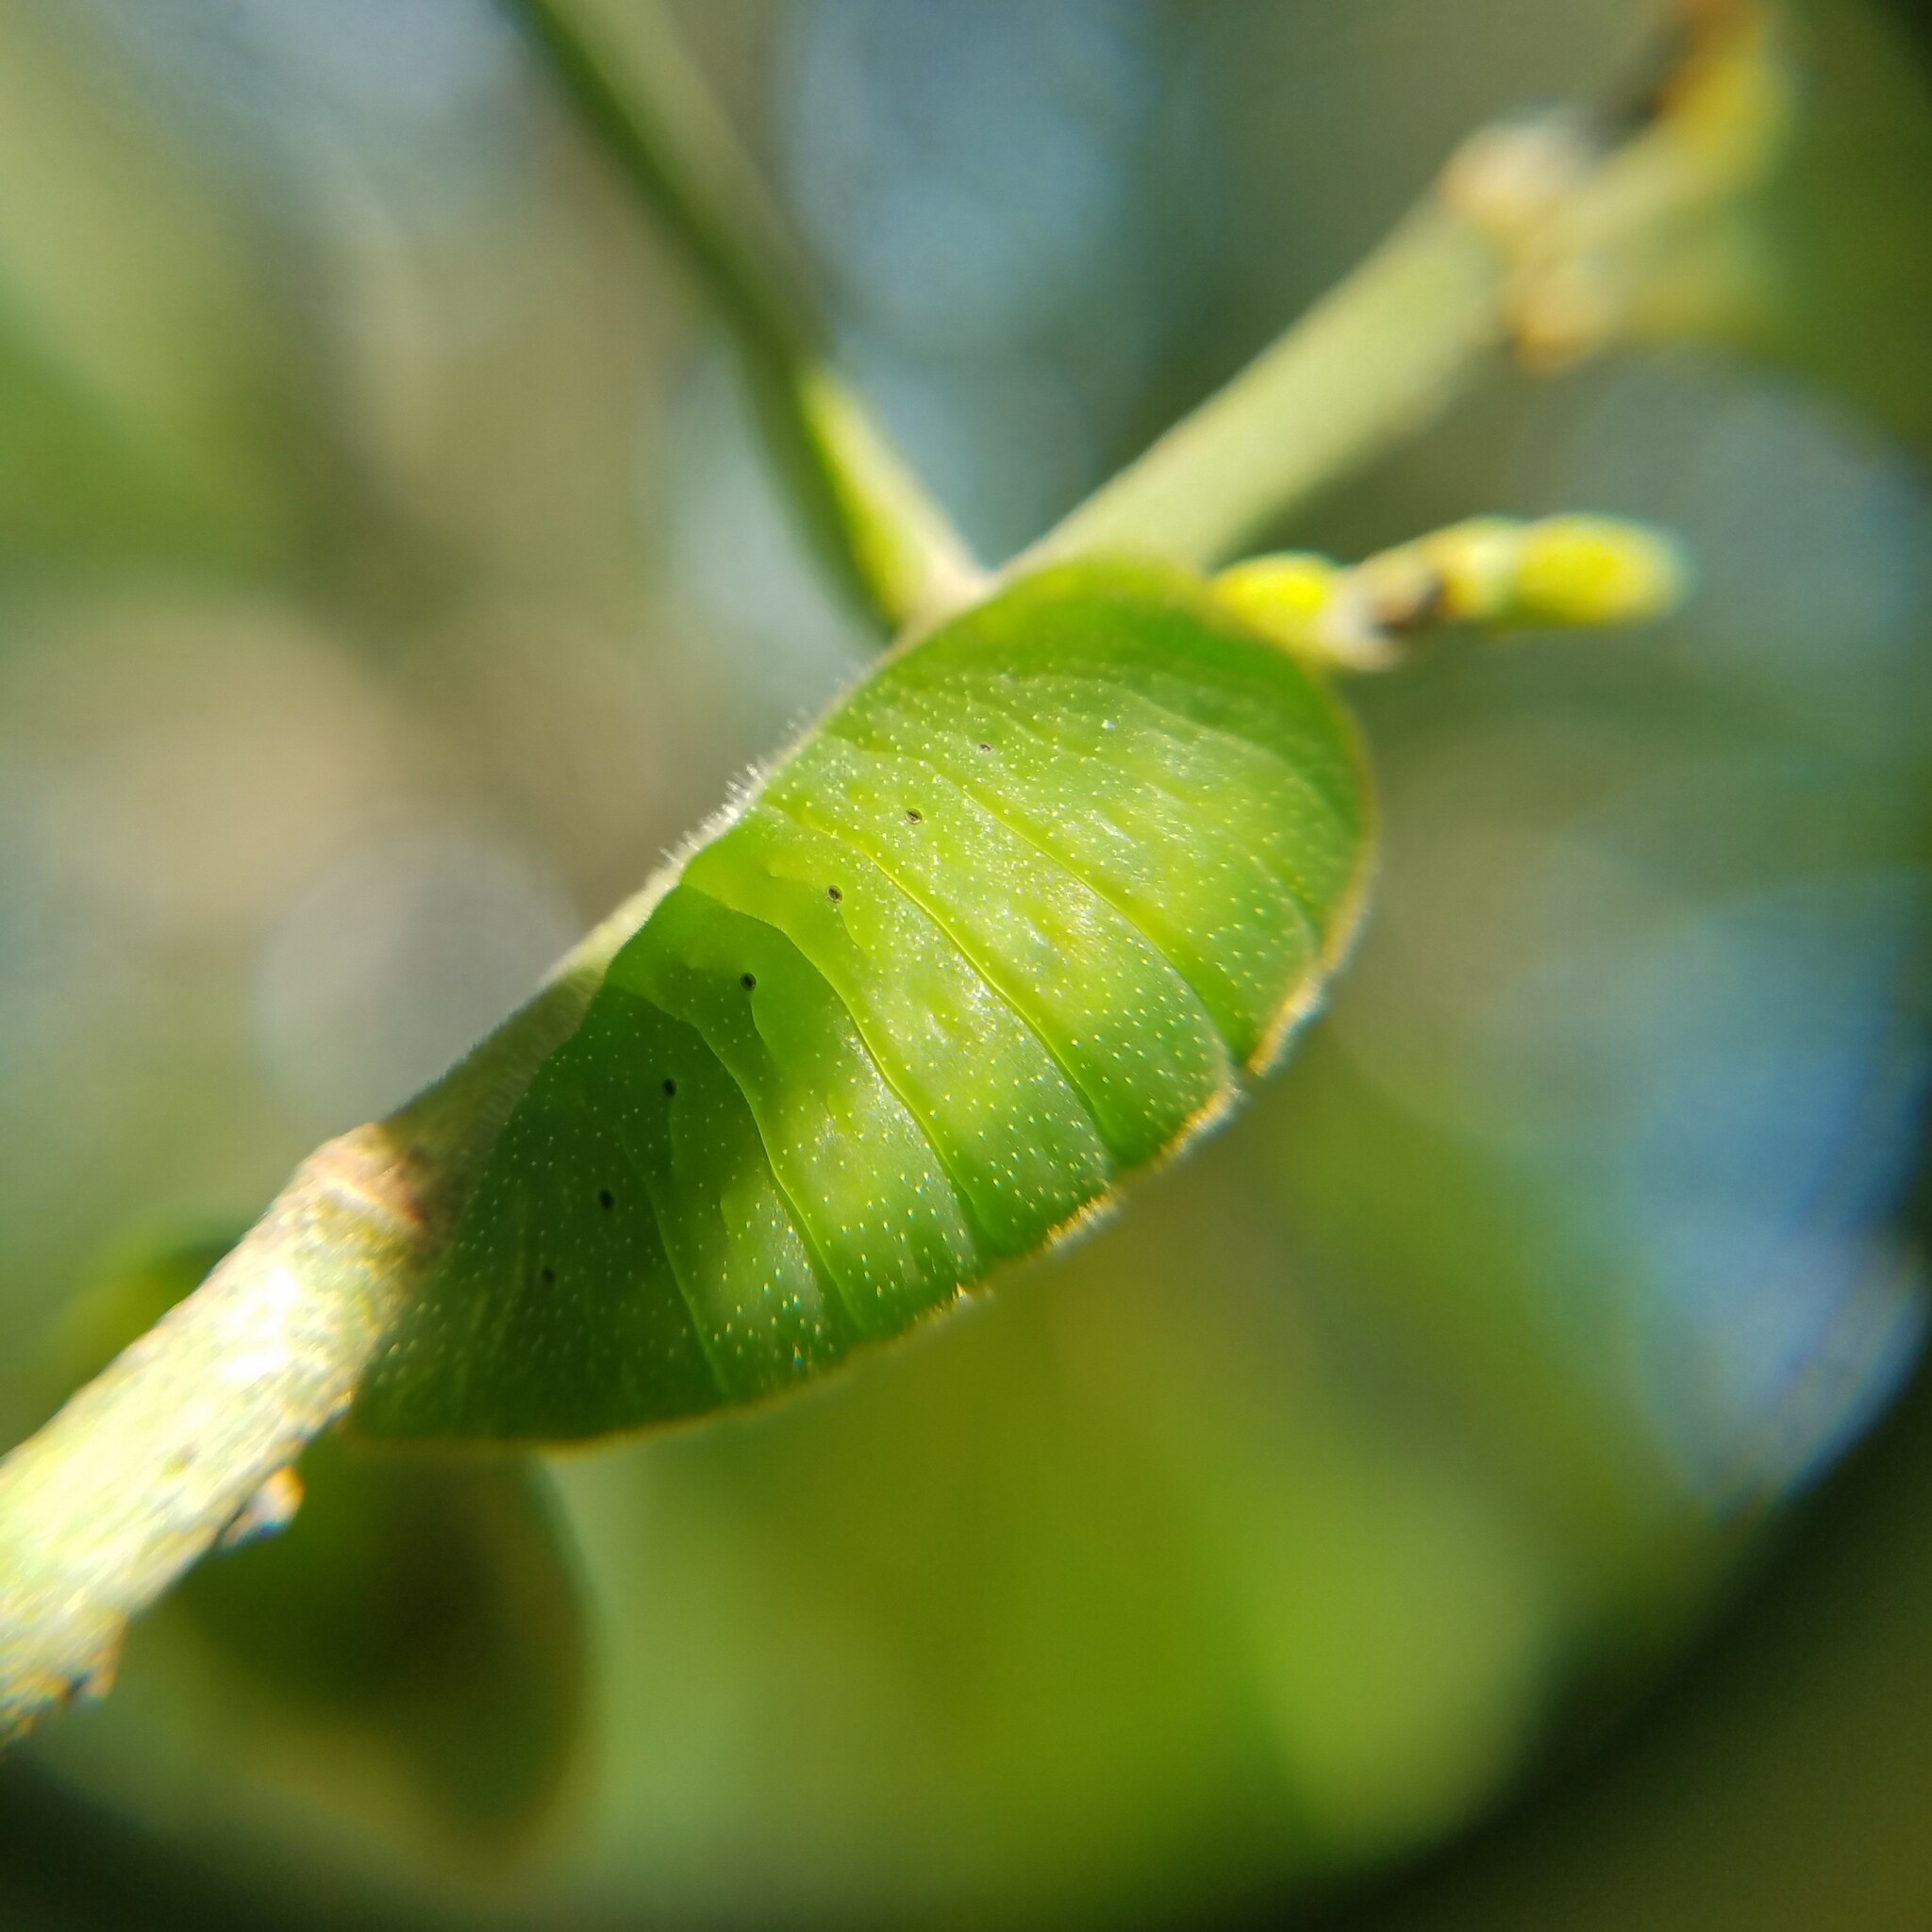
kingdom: Animalia
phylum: Arthropoda
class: Insecta
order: Lepidoptera
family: Lycaenidae
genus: Atlides
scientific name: Atlides halesus
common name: Great purple hairstreak
